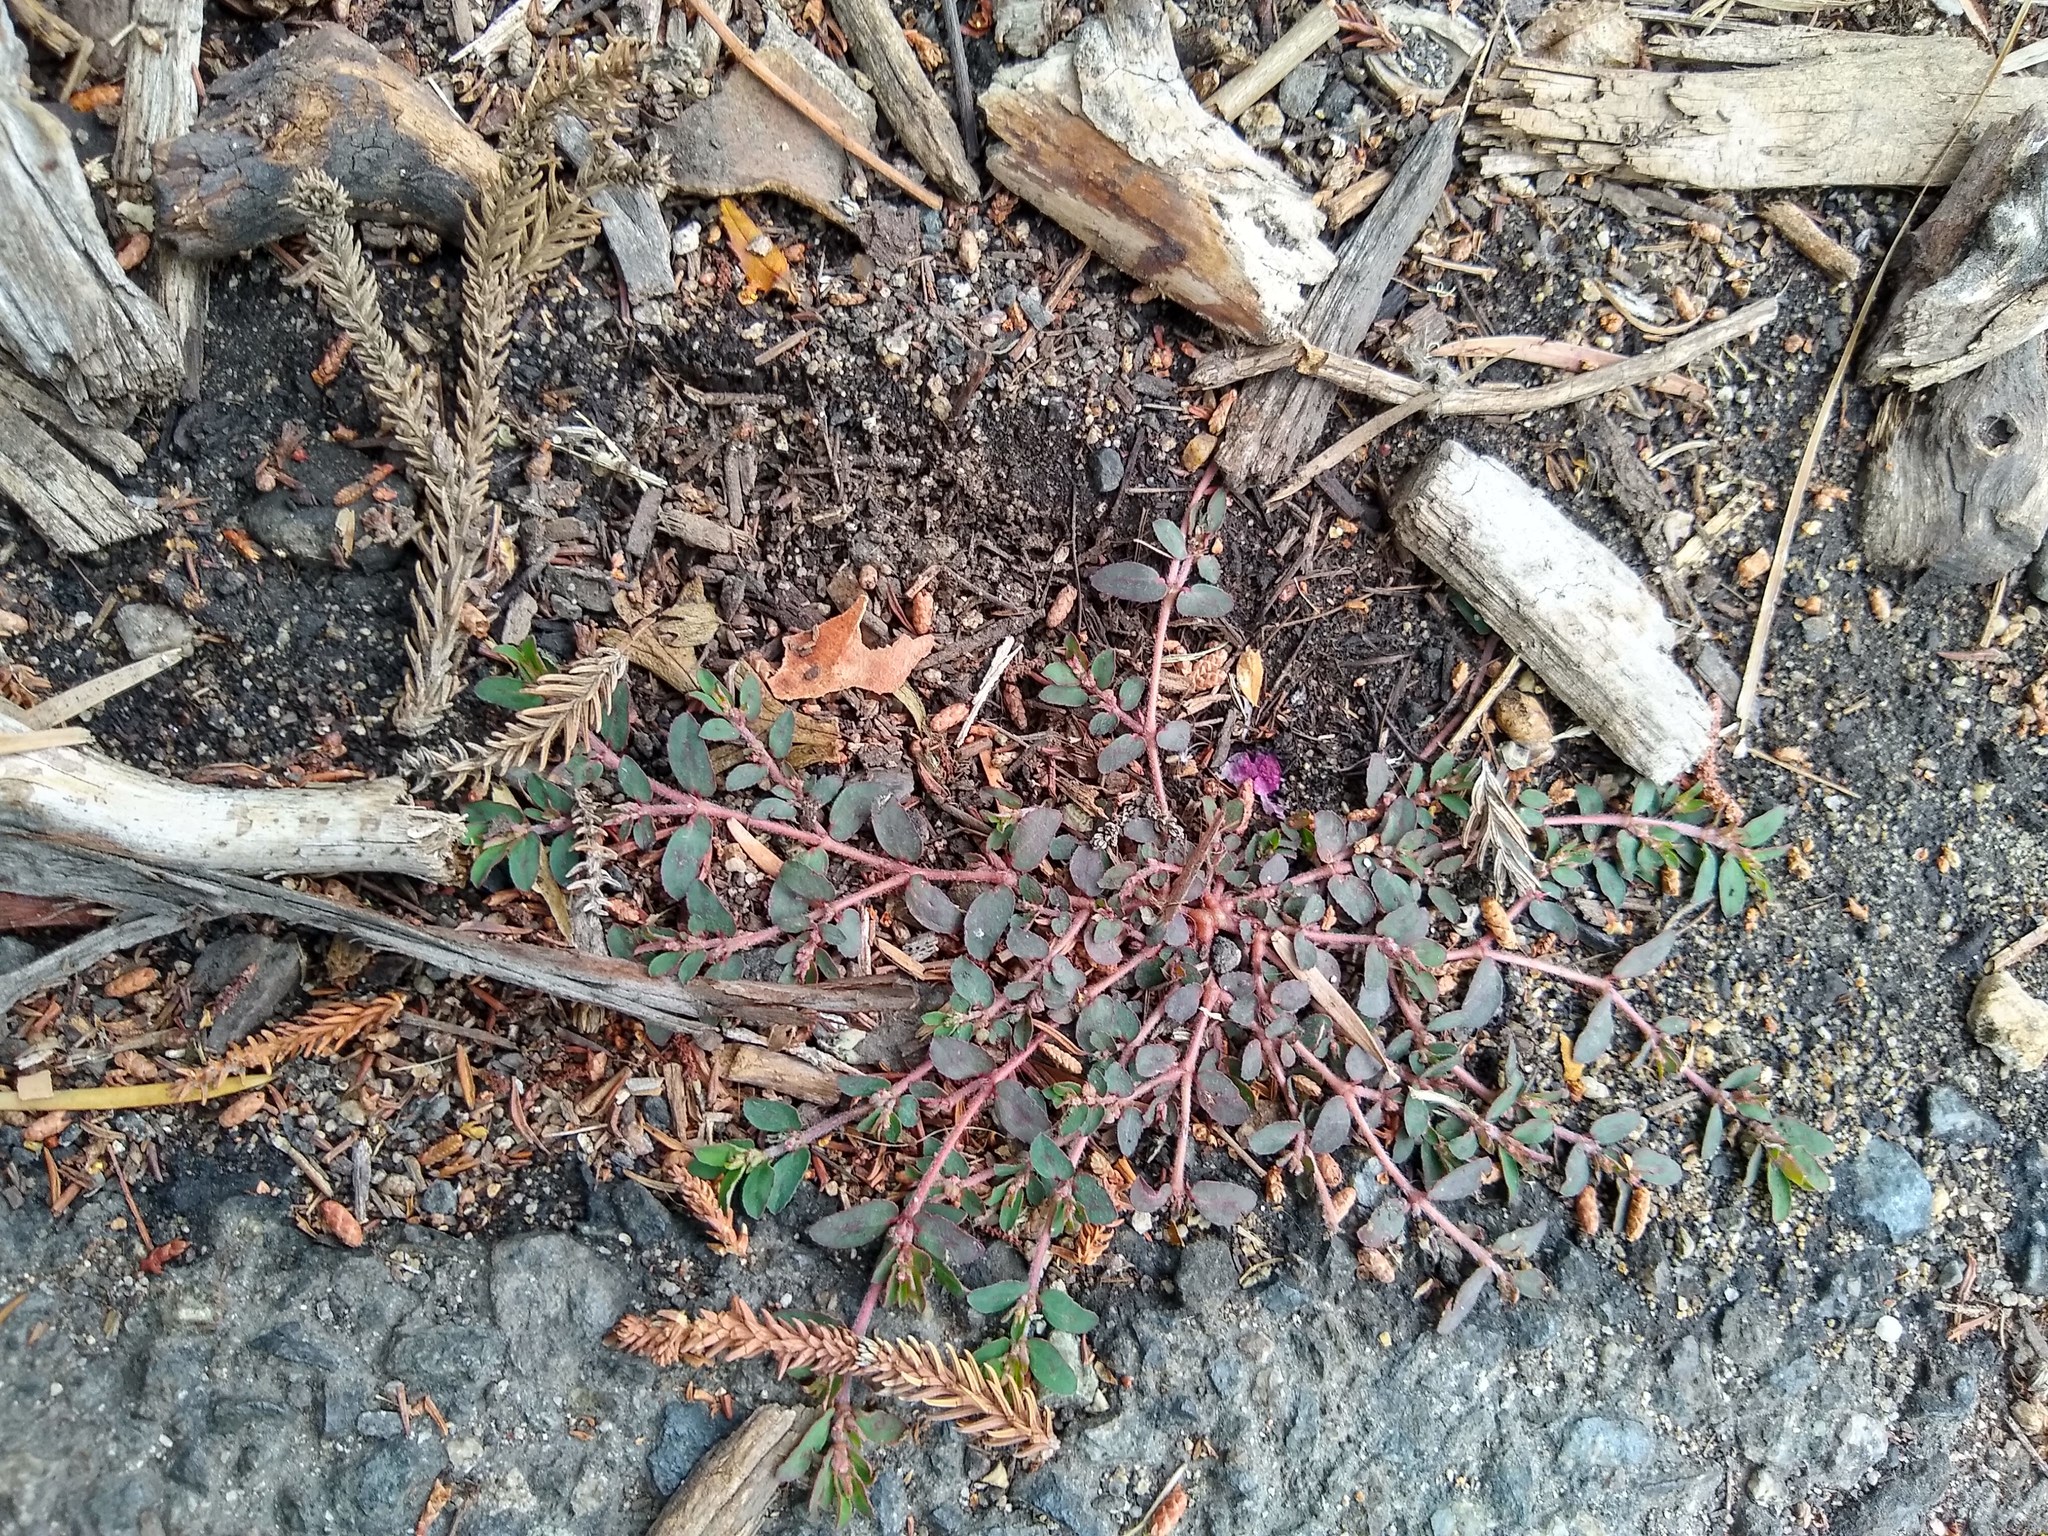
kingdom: Plantae
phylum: Tracheophyta
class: Magnoliopsida
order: Malpighiales
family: Euphorbiaceae
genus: Euphorbia
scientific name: Euphorbia maculata
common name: Spotted spurge
